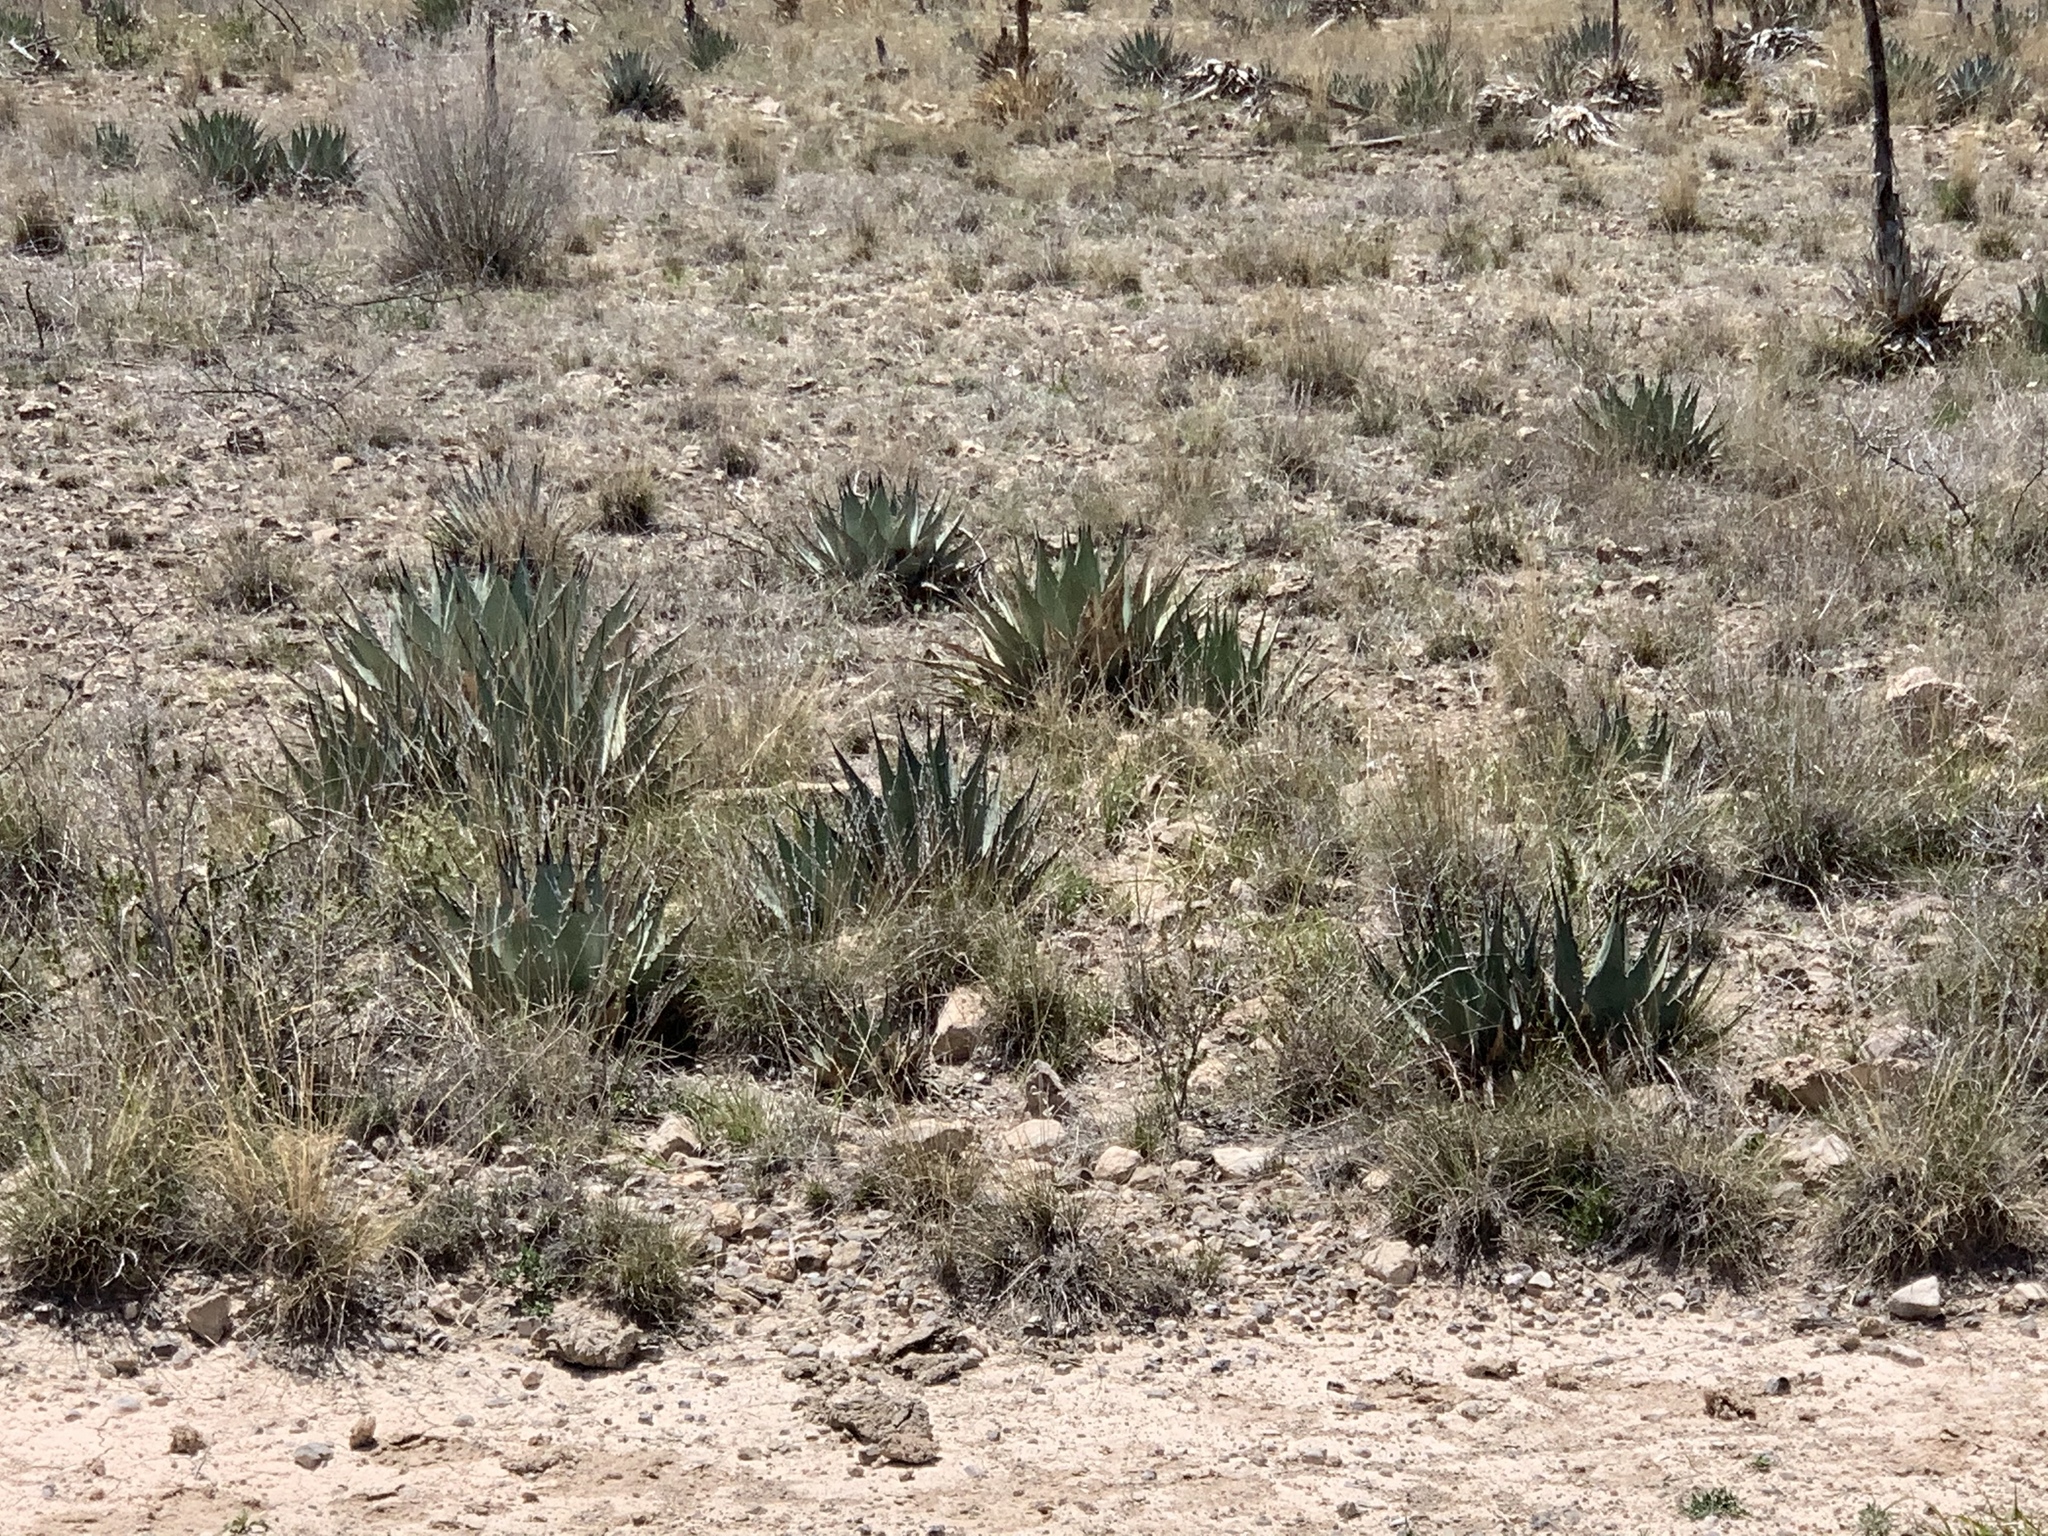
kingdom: Plantae
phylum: Tracheophyta
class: Liliopsida
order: Asparagales
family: Asparagaceae
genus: Agave
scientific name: Agave parryi
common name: Parry's agave
